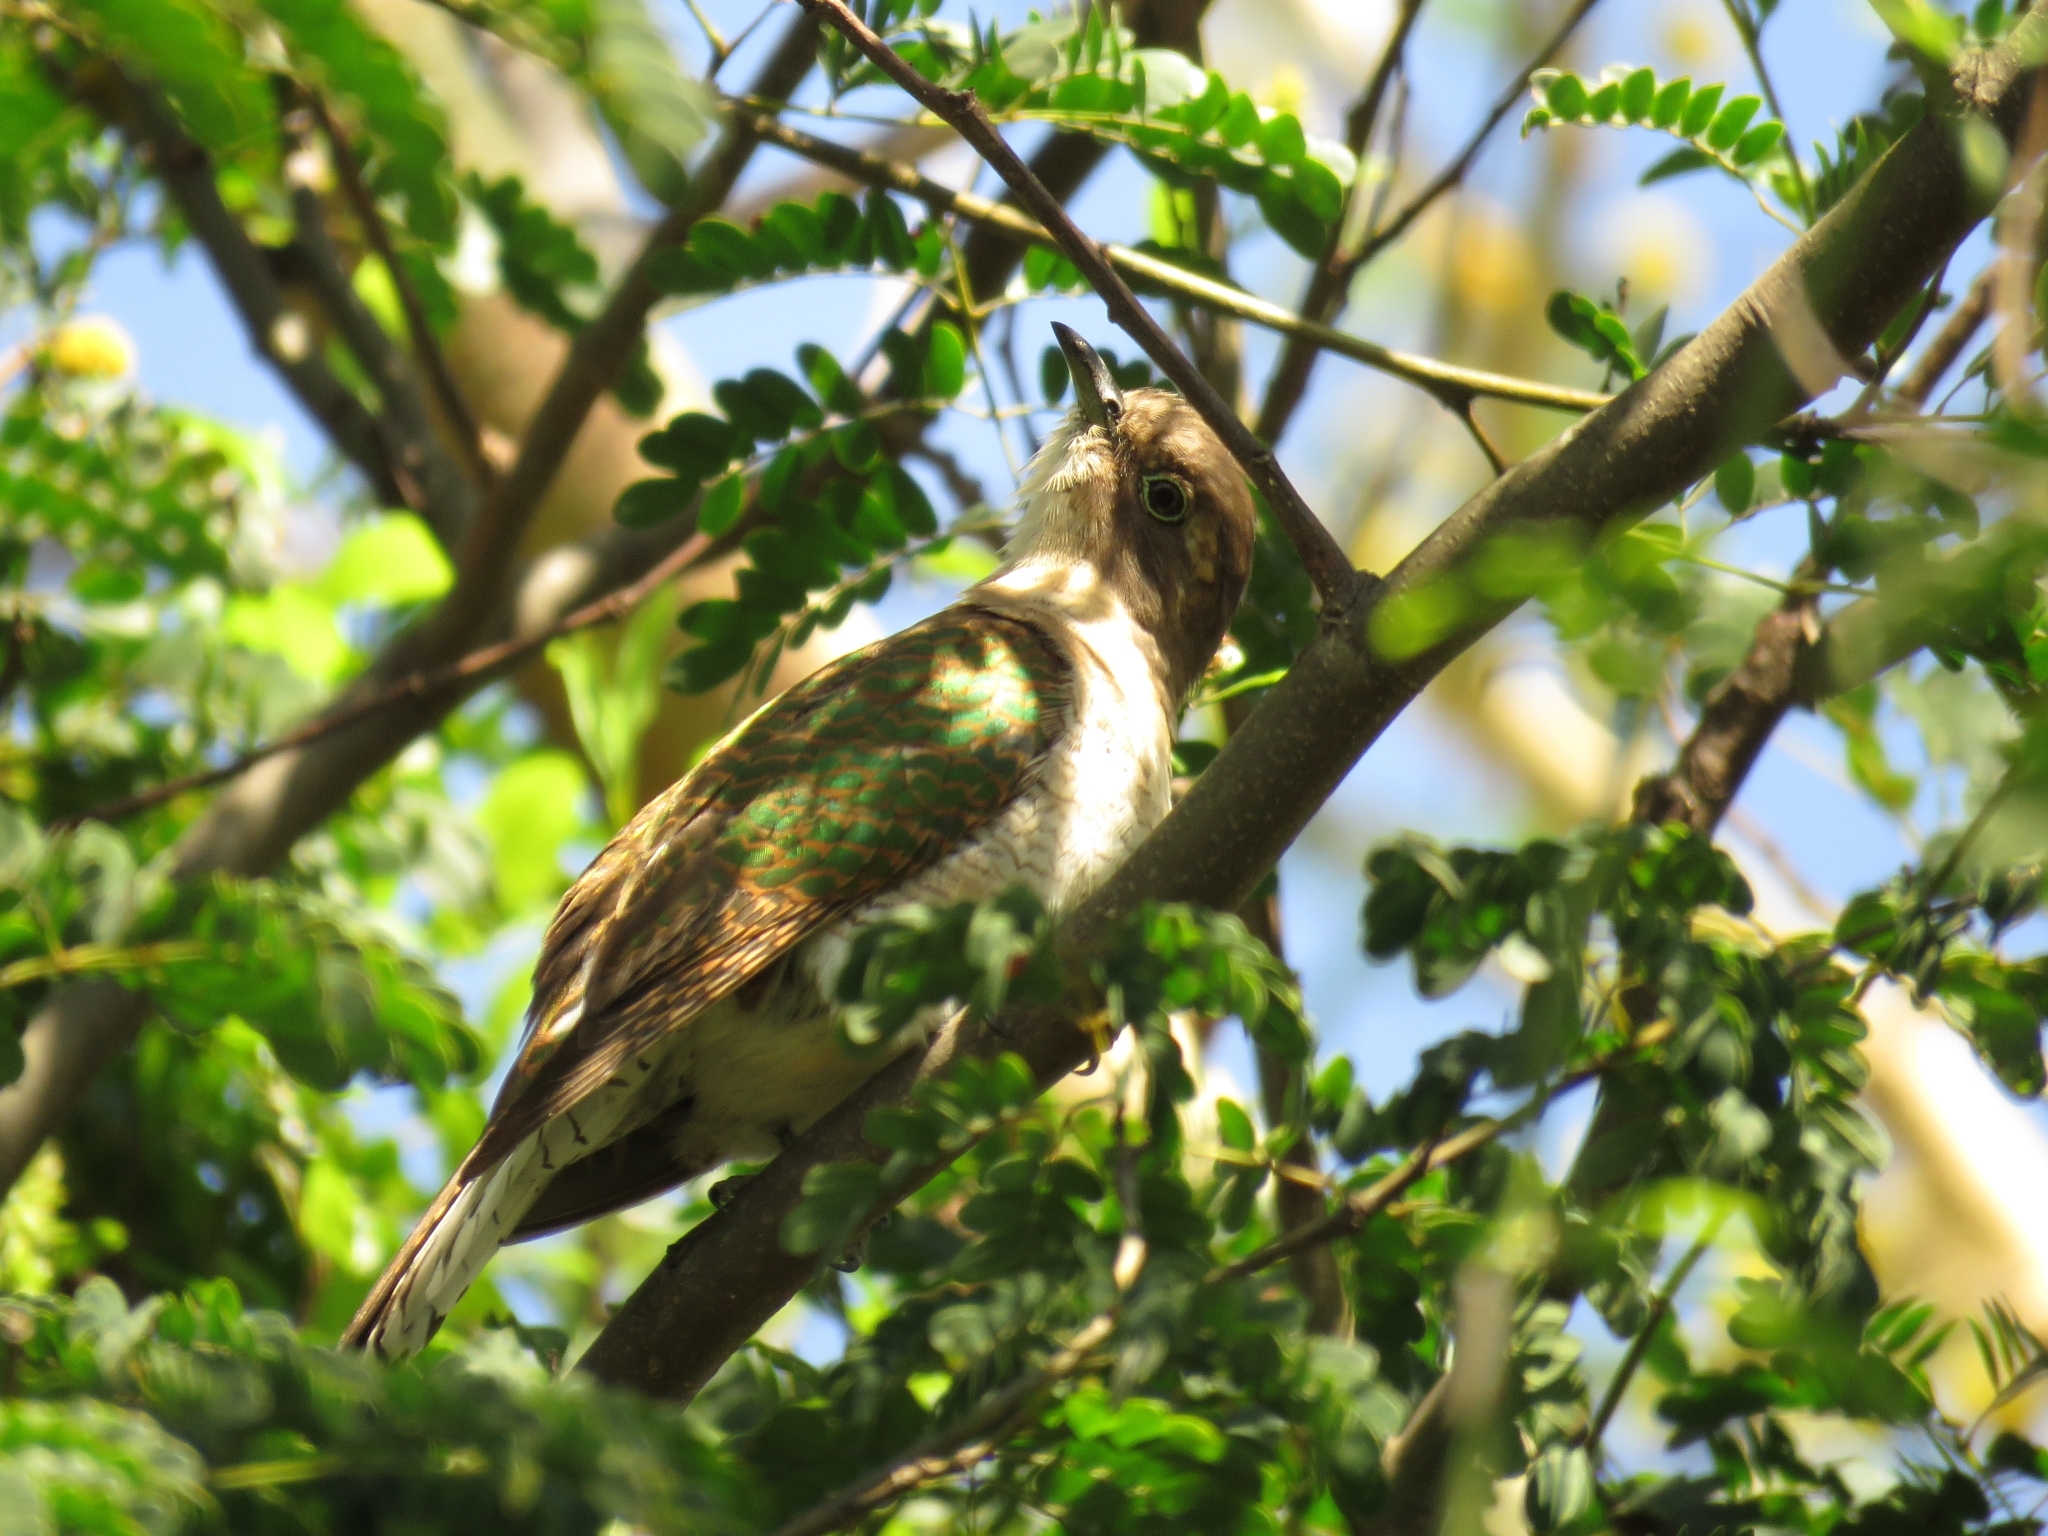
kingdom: Animalia
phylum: Chordata
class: Aves
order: Cuculiformes
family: Cuculidae
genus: Chrysococcyx
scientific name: Chrysococcyx klaas
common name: Klaas's cuckoo
